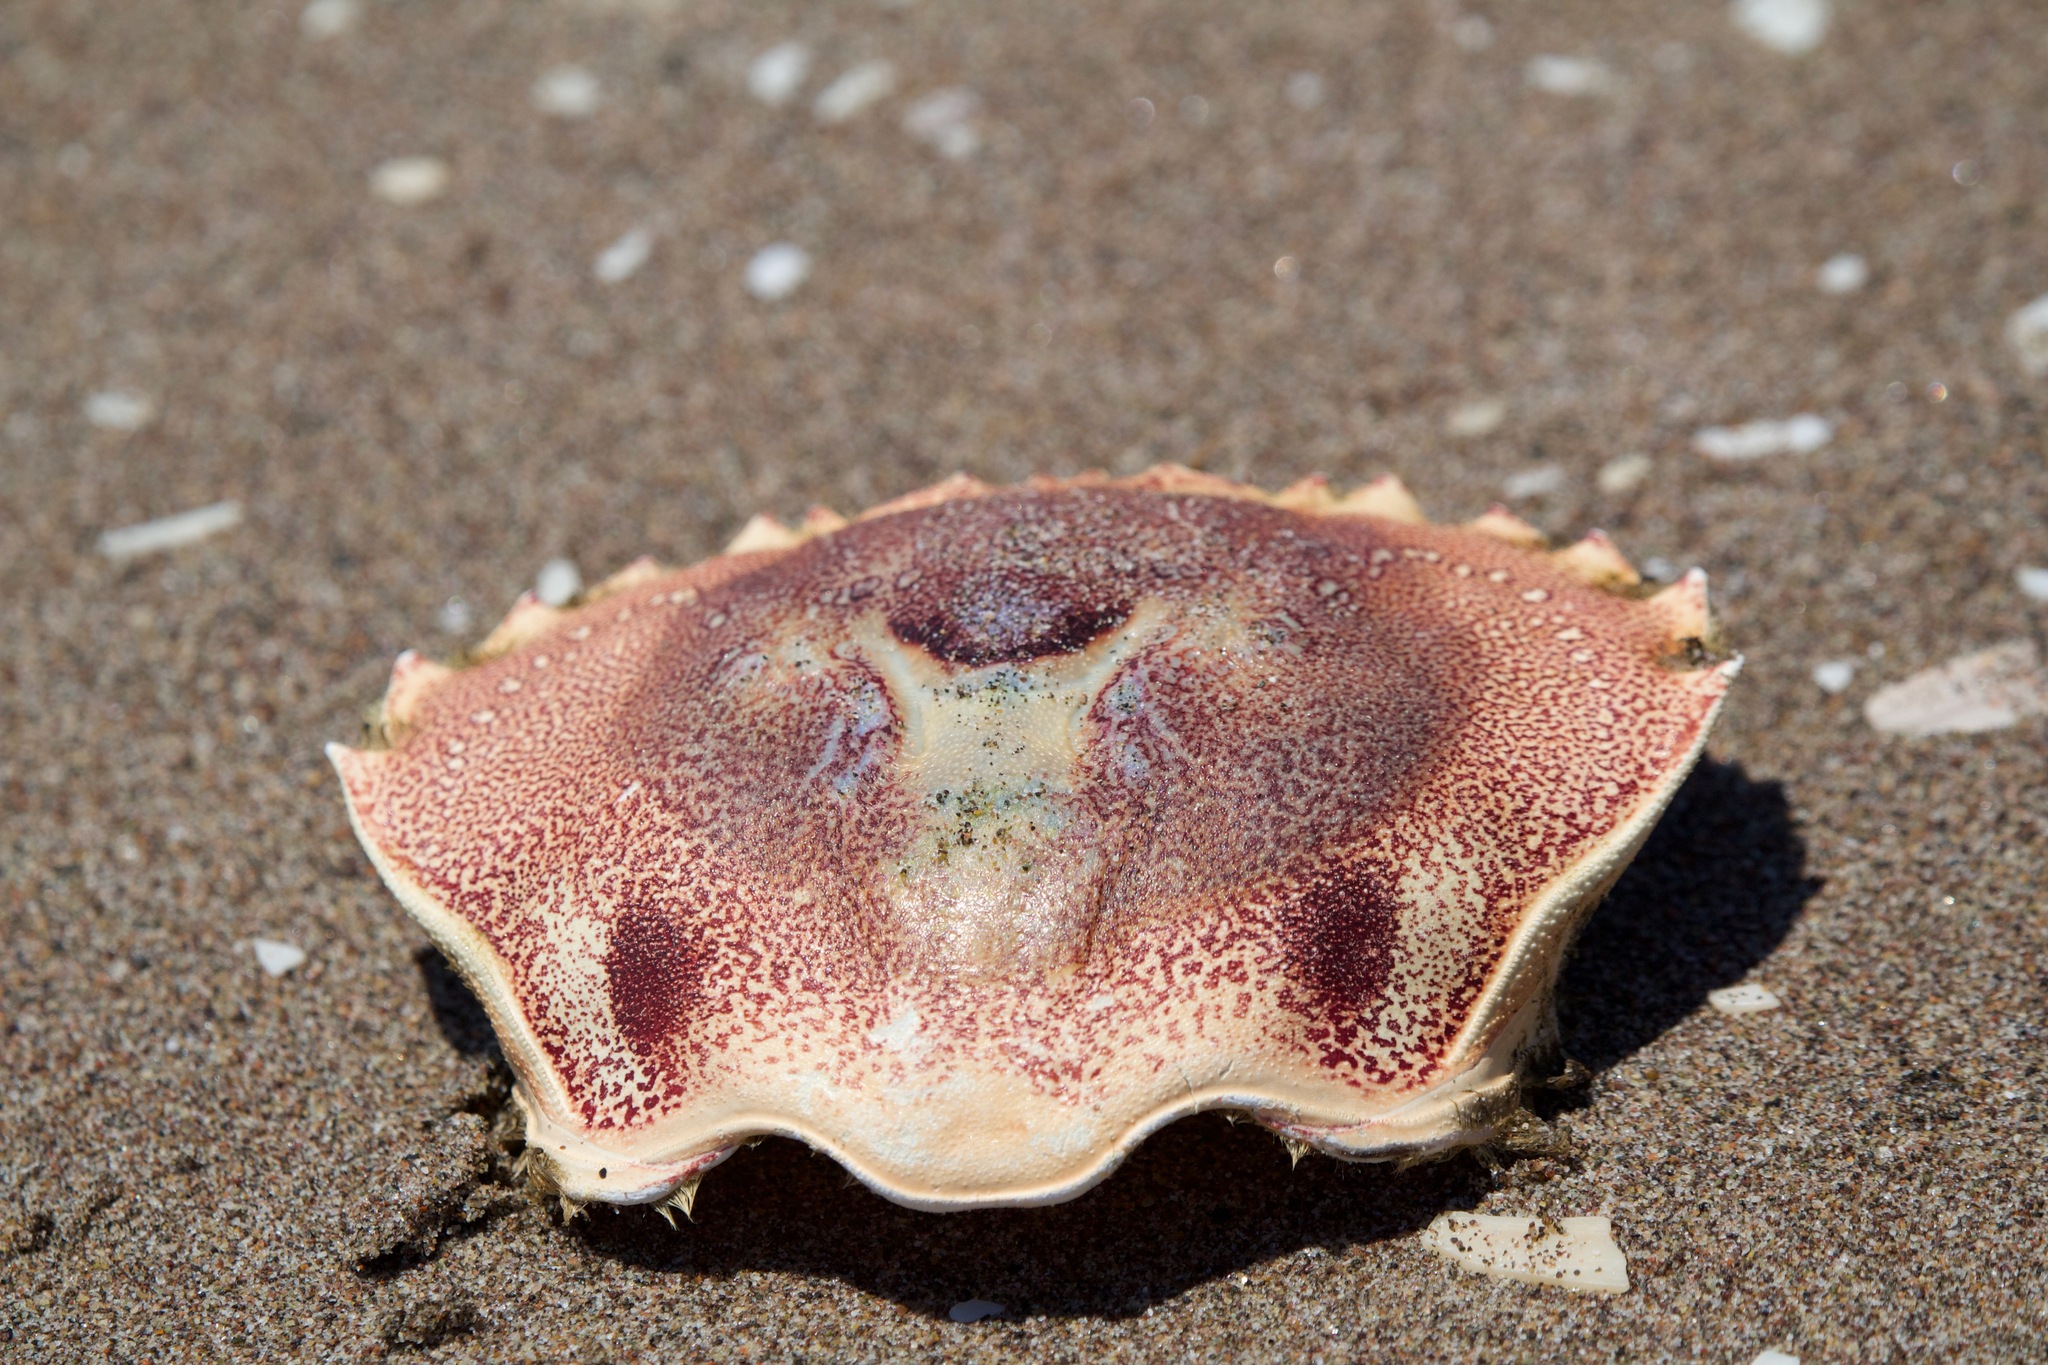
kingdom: Animalia
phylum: Arthropoda
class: Malacostraca
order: Decapoda
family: Ovalipidae
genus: Ovalipes
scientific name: Ovalipes trimaculatus
